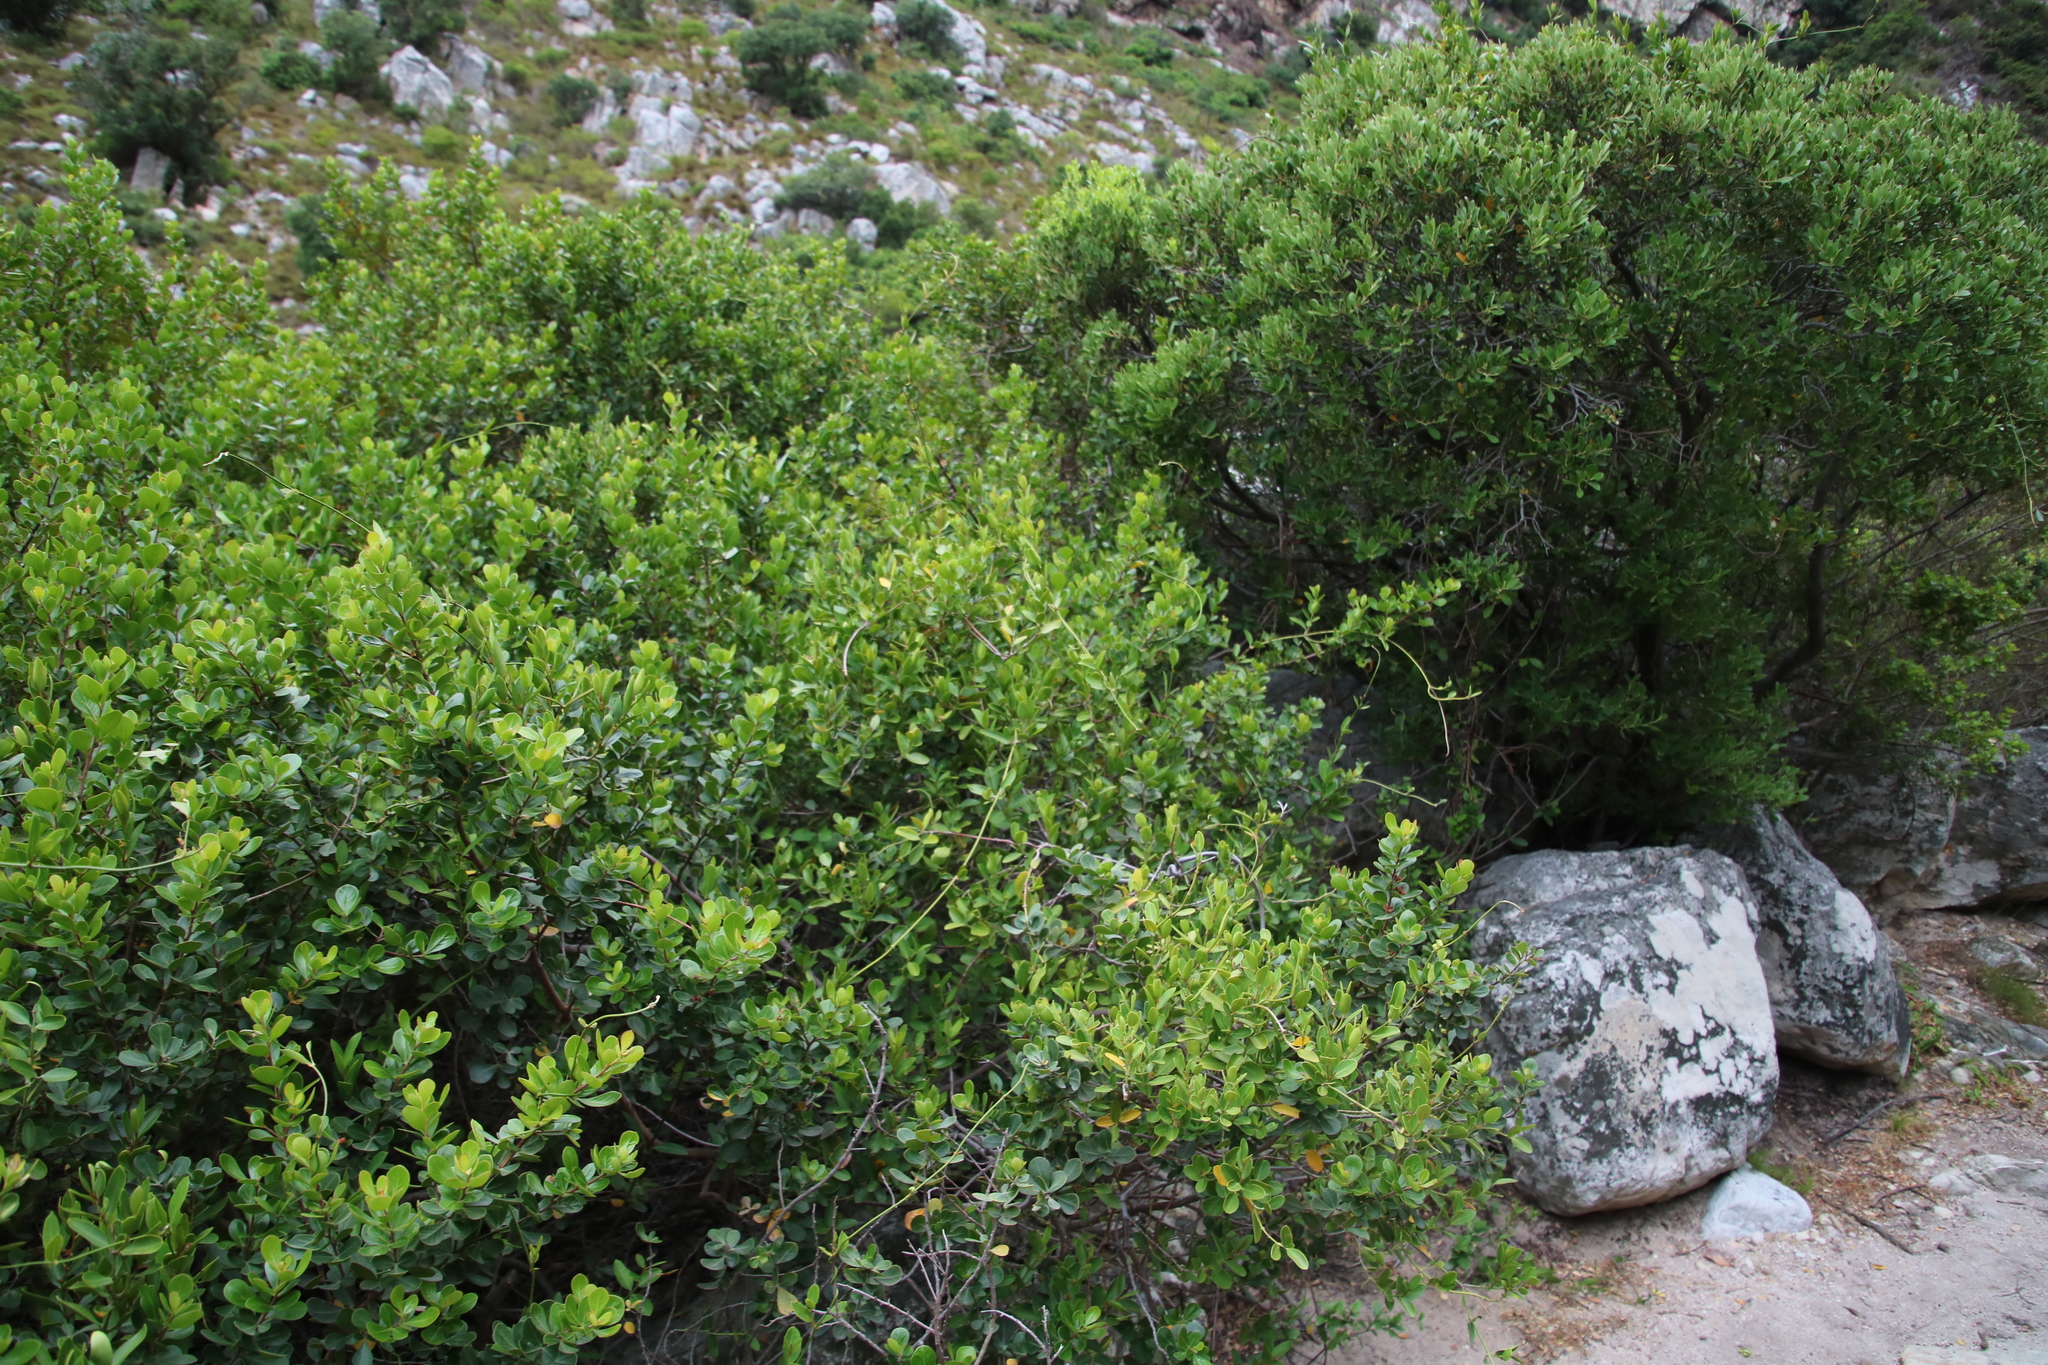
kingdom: Plantae
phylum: Tracheophyta
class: Magnoliopsida
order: Gentianales
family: Apocynaceae
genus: Secamone
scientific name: Secamone alpini
